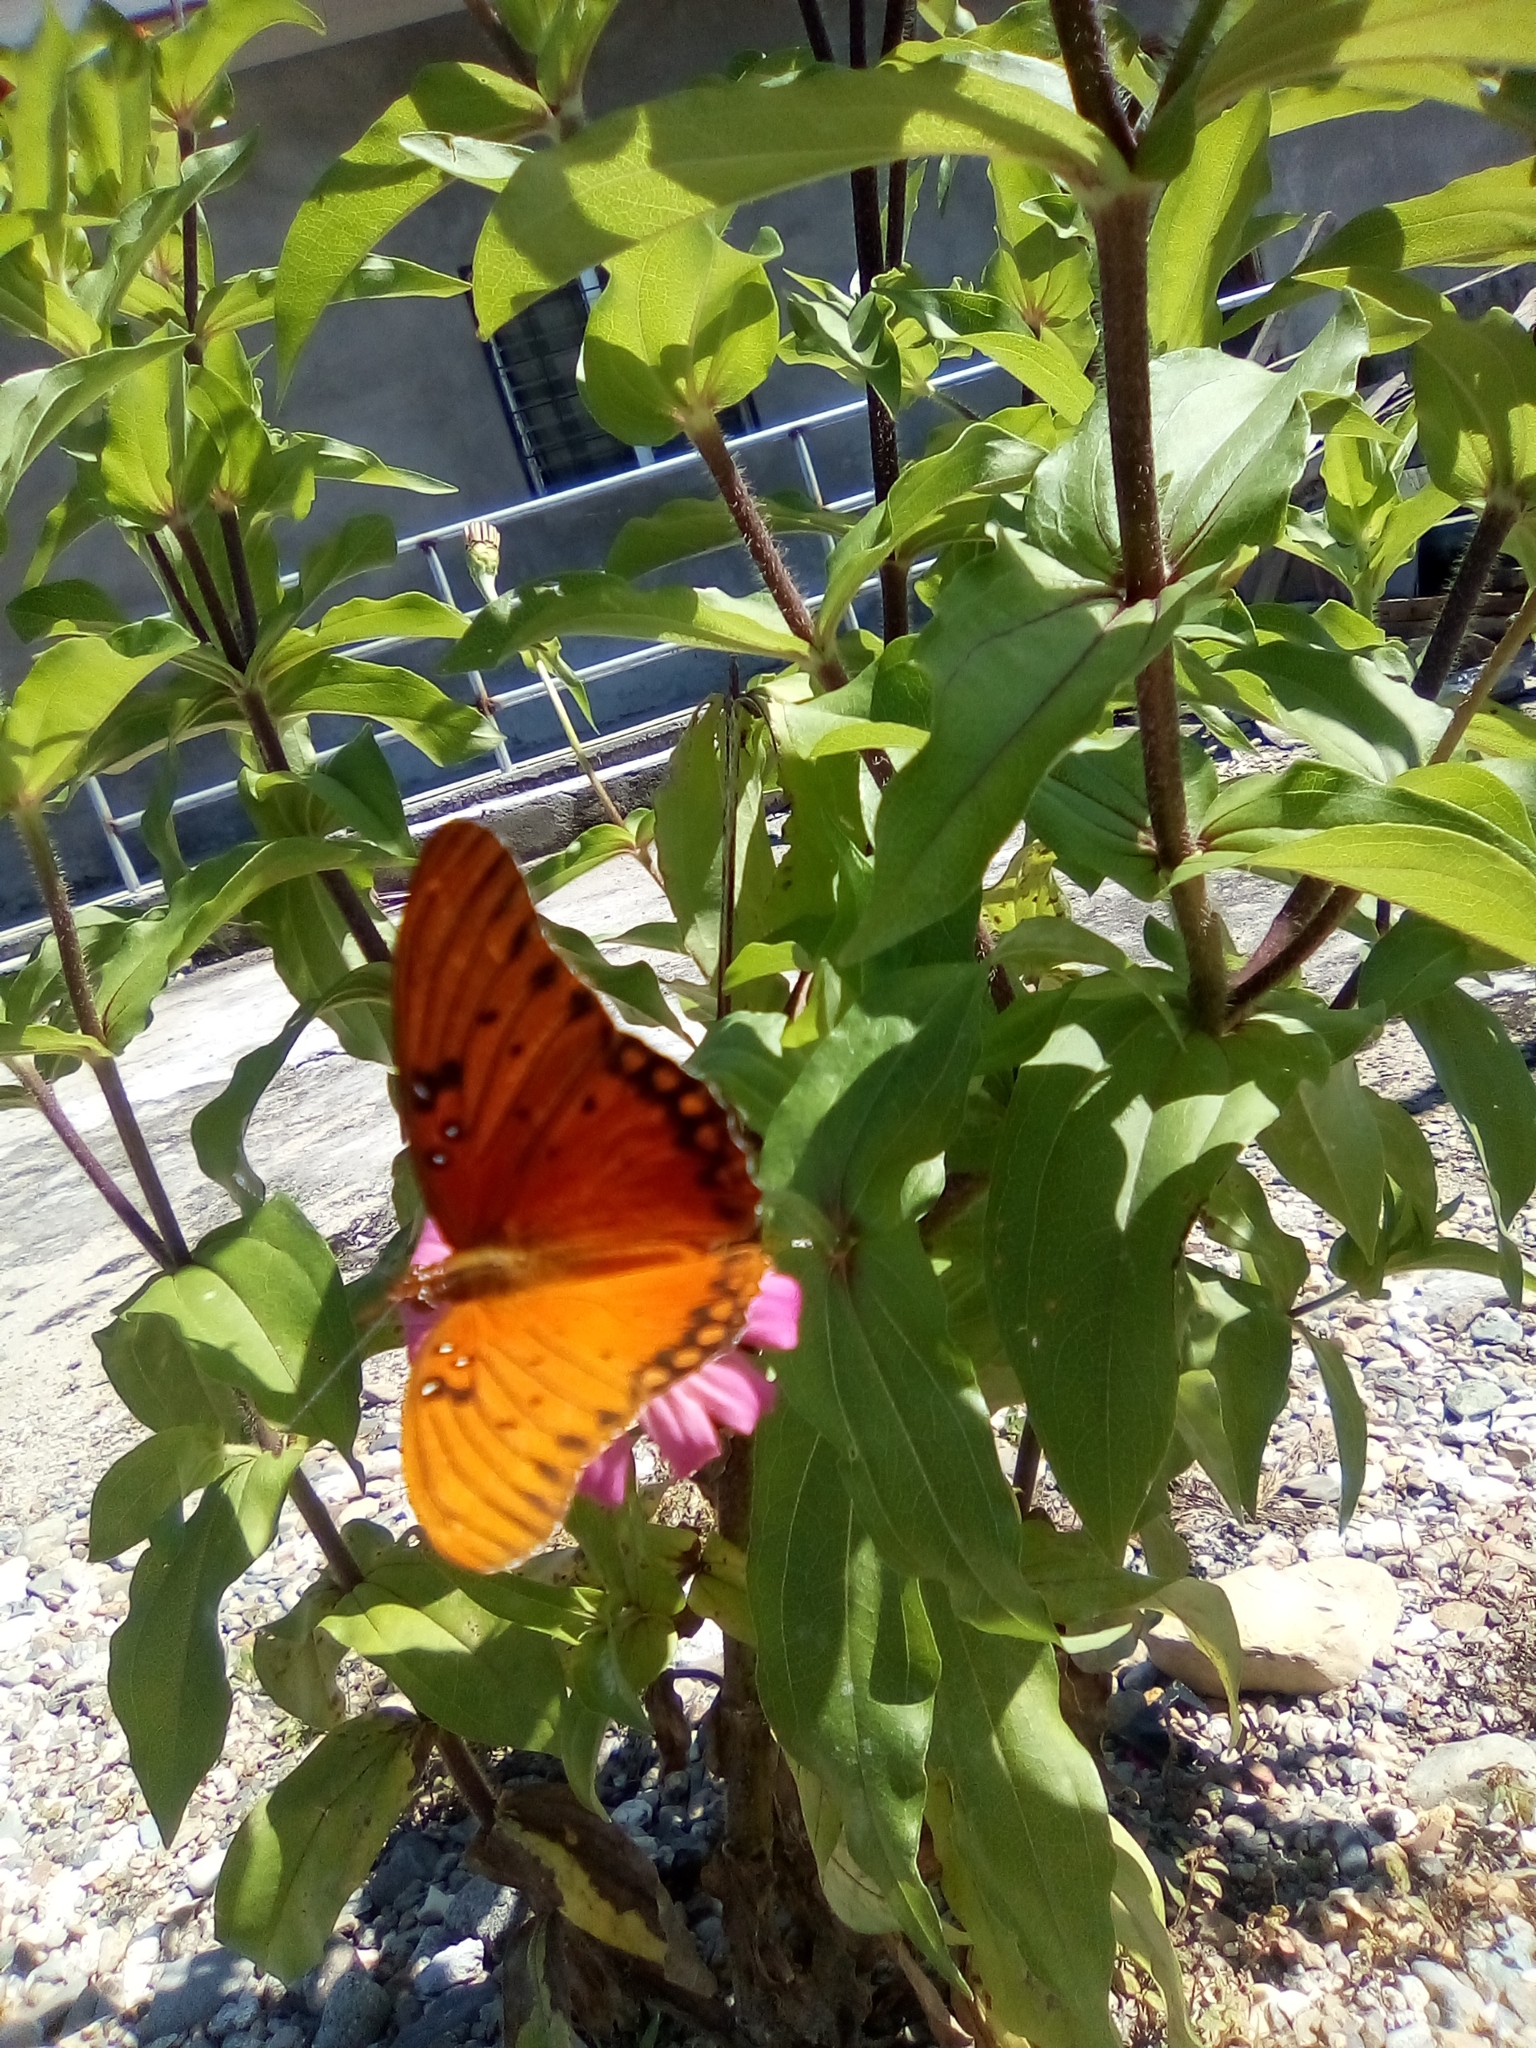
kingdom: Animalia
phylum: Arthropoda
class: Insecta
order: Lepidoptera
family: Nymphalidae
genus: Dione
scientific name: Dione vanillae
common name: Gulf fritillary
